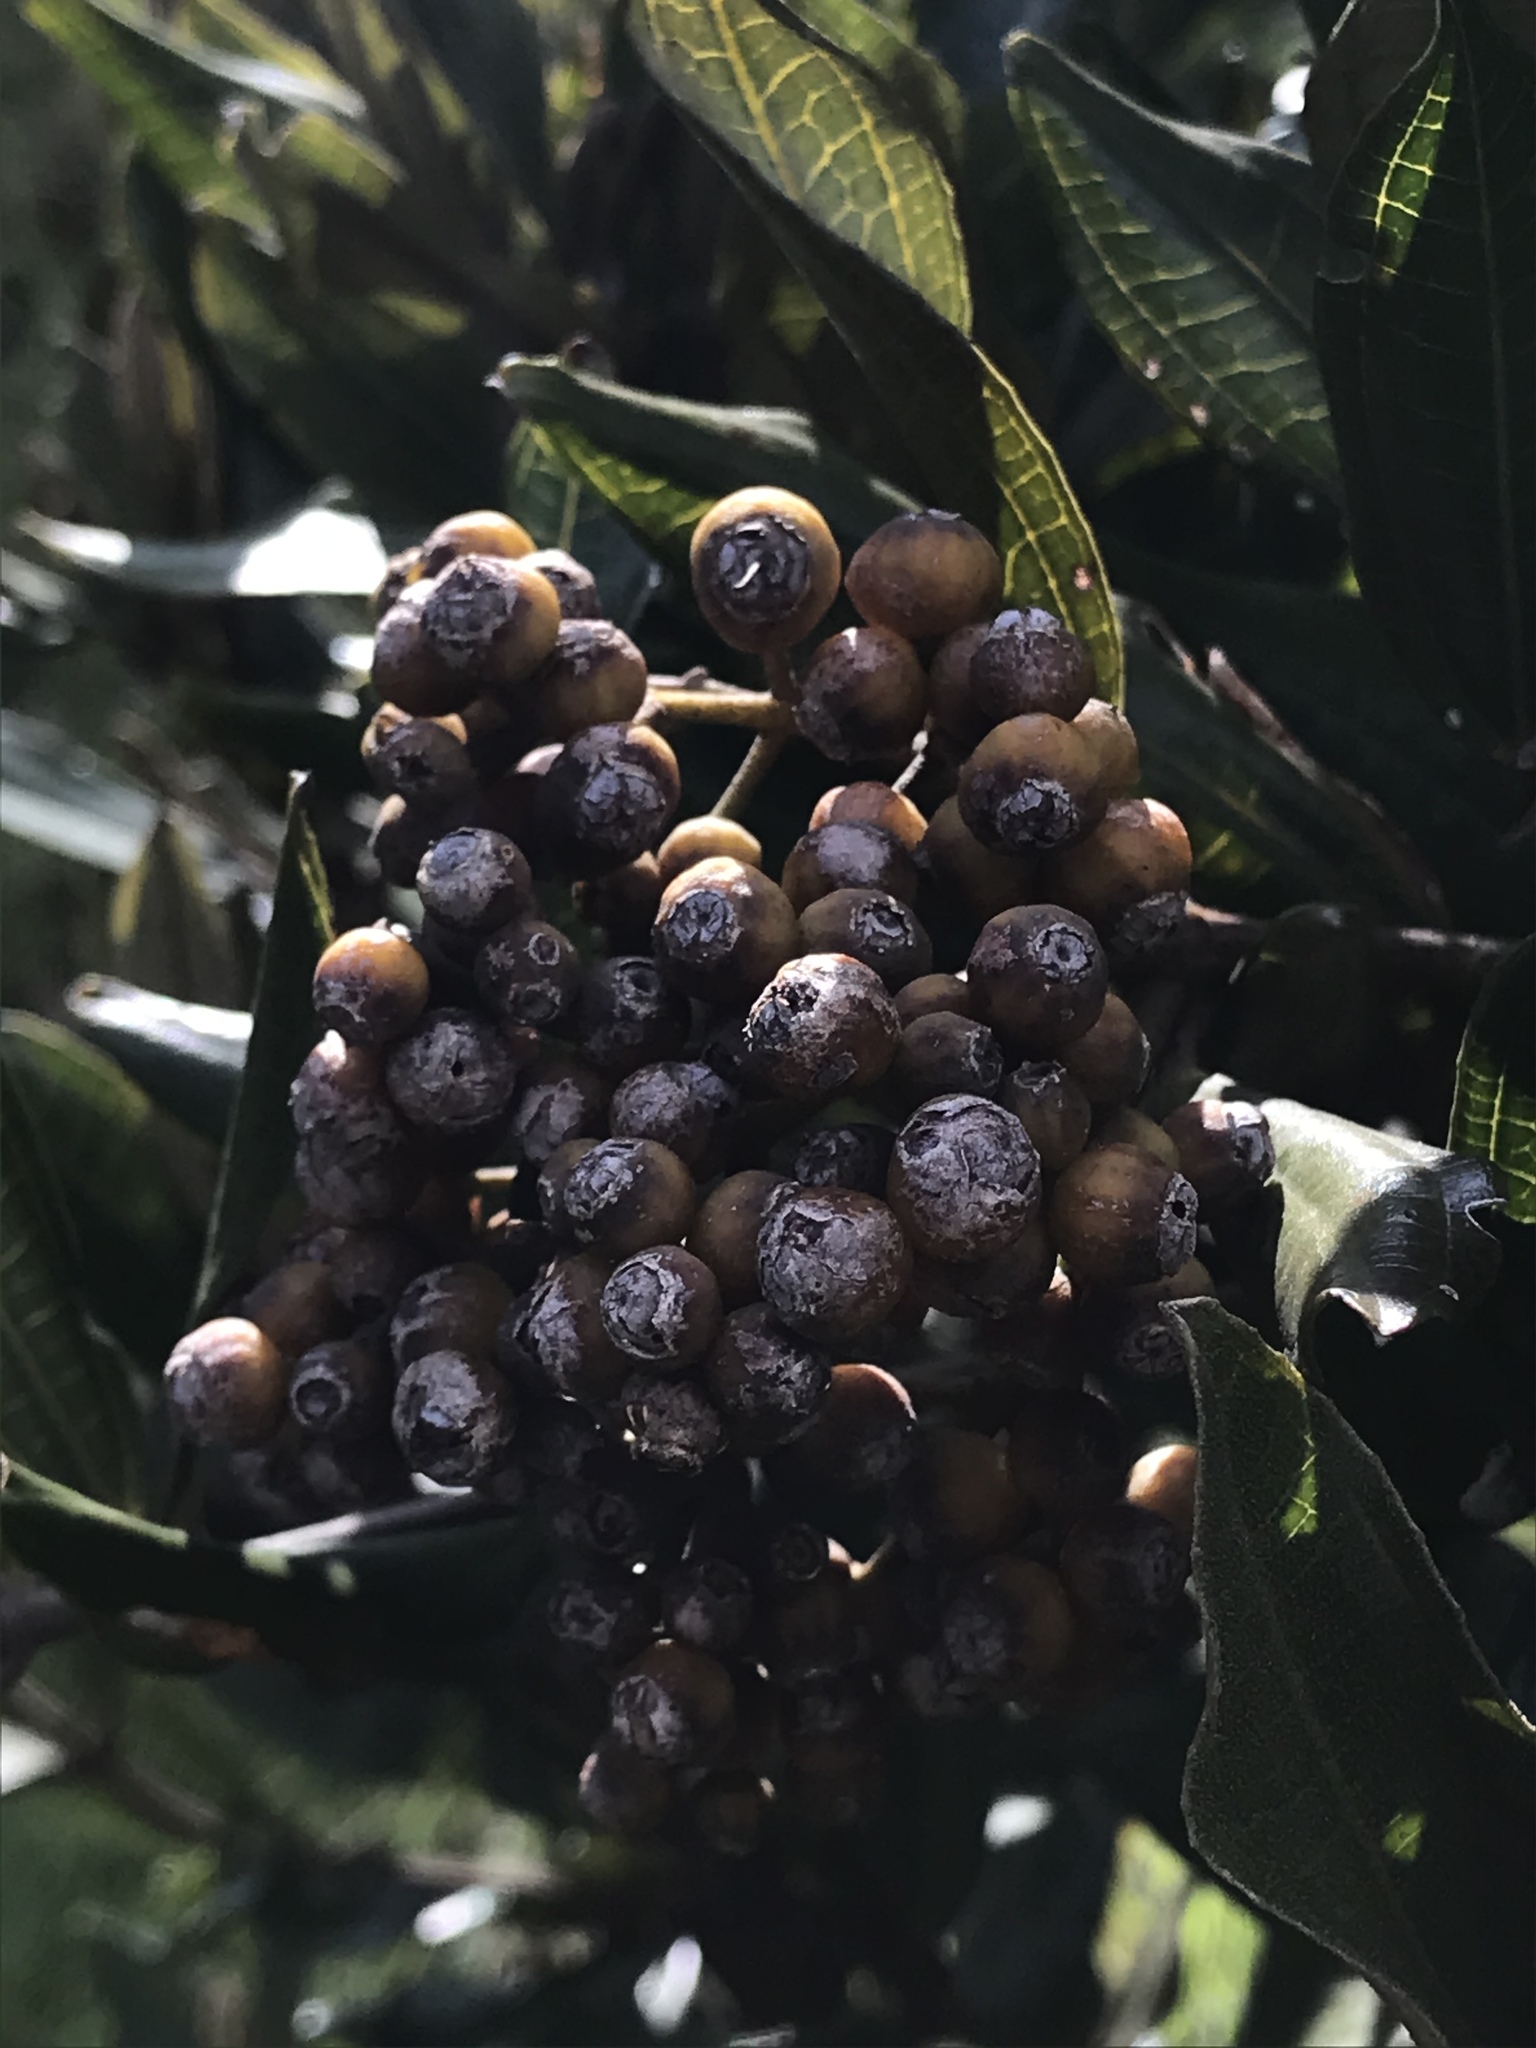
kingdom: Plantae
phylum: Tracheophyta
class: Magnoliopsida
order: Myrtales
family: Melastomataceae
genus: Miconia
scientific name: Miconia squamulosa
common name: Squamulose maya
